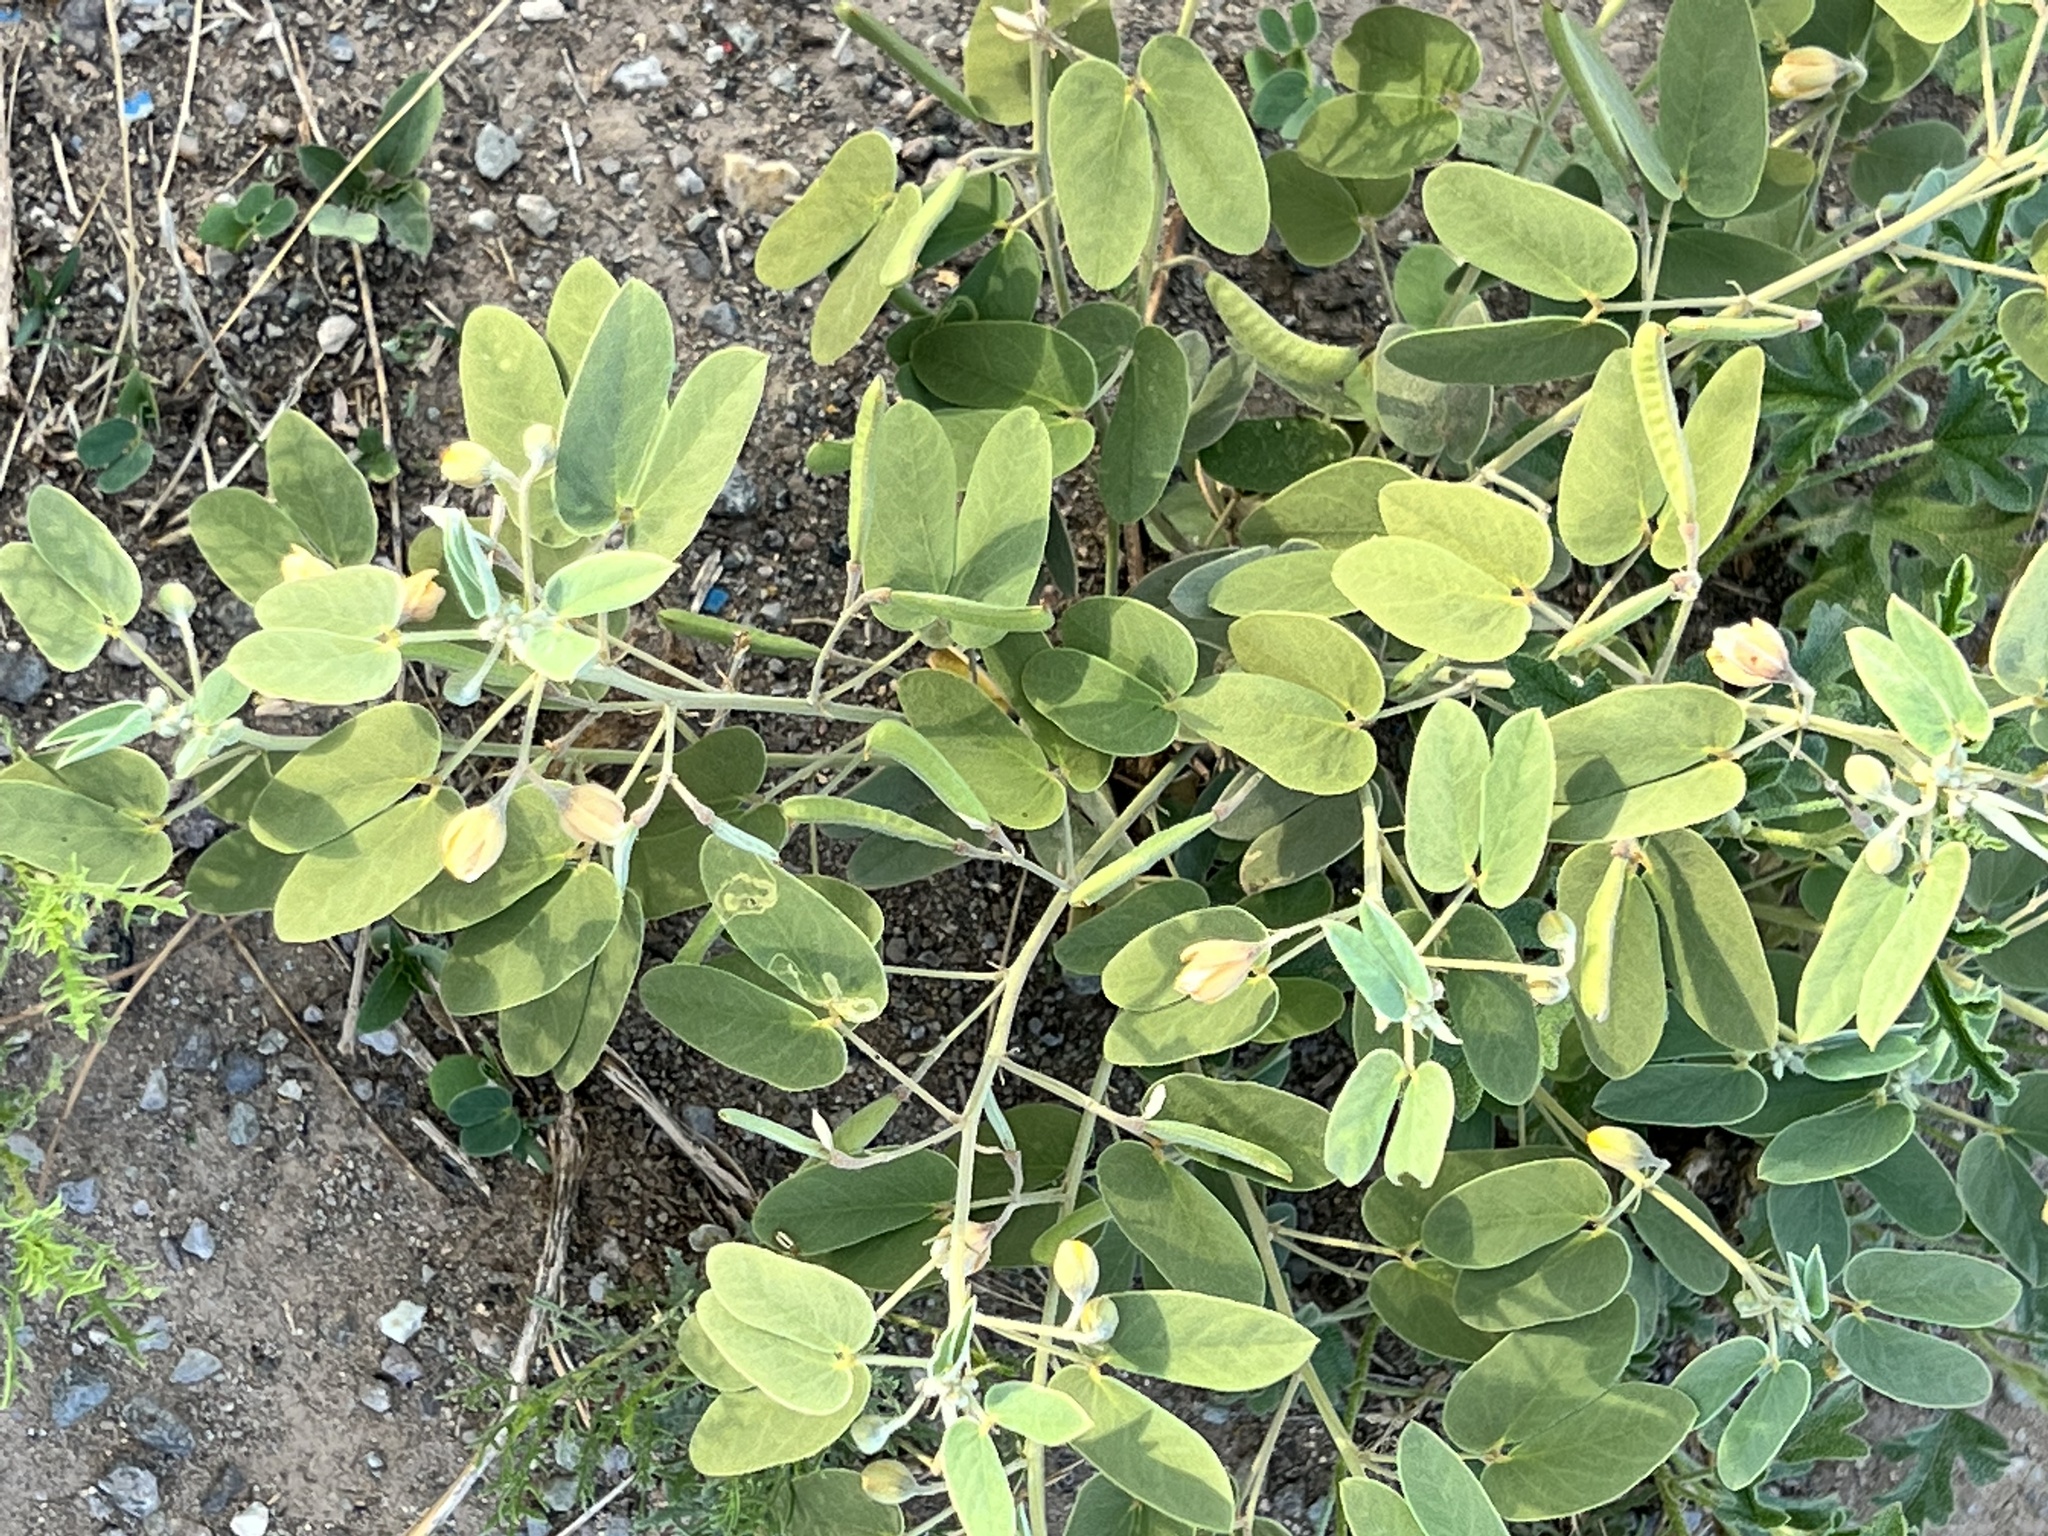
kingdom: Plantae
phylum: Tracheophyta
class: Magnoliopsida
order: Fabales
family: Fabaceae
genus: Senna
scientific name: Senna bauhinioides
